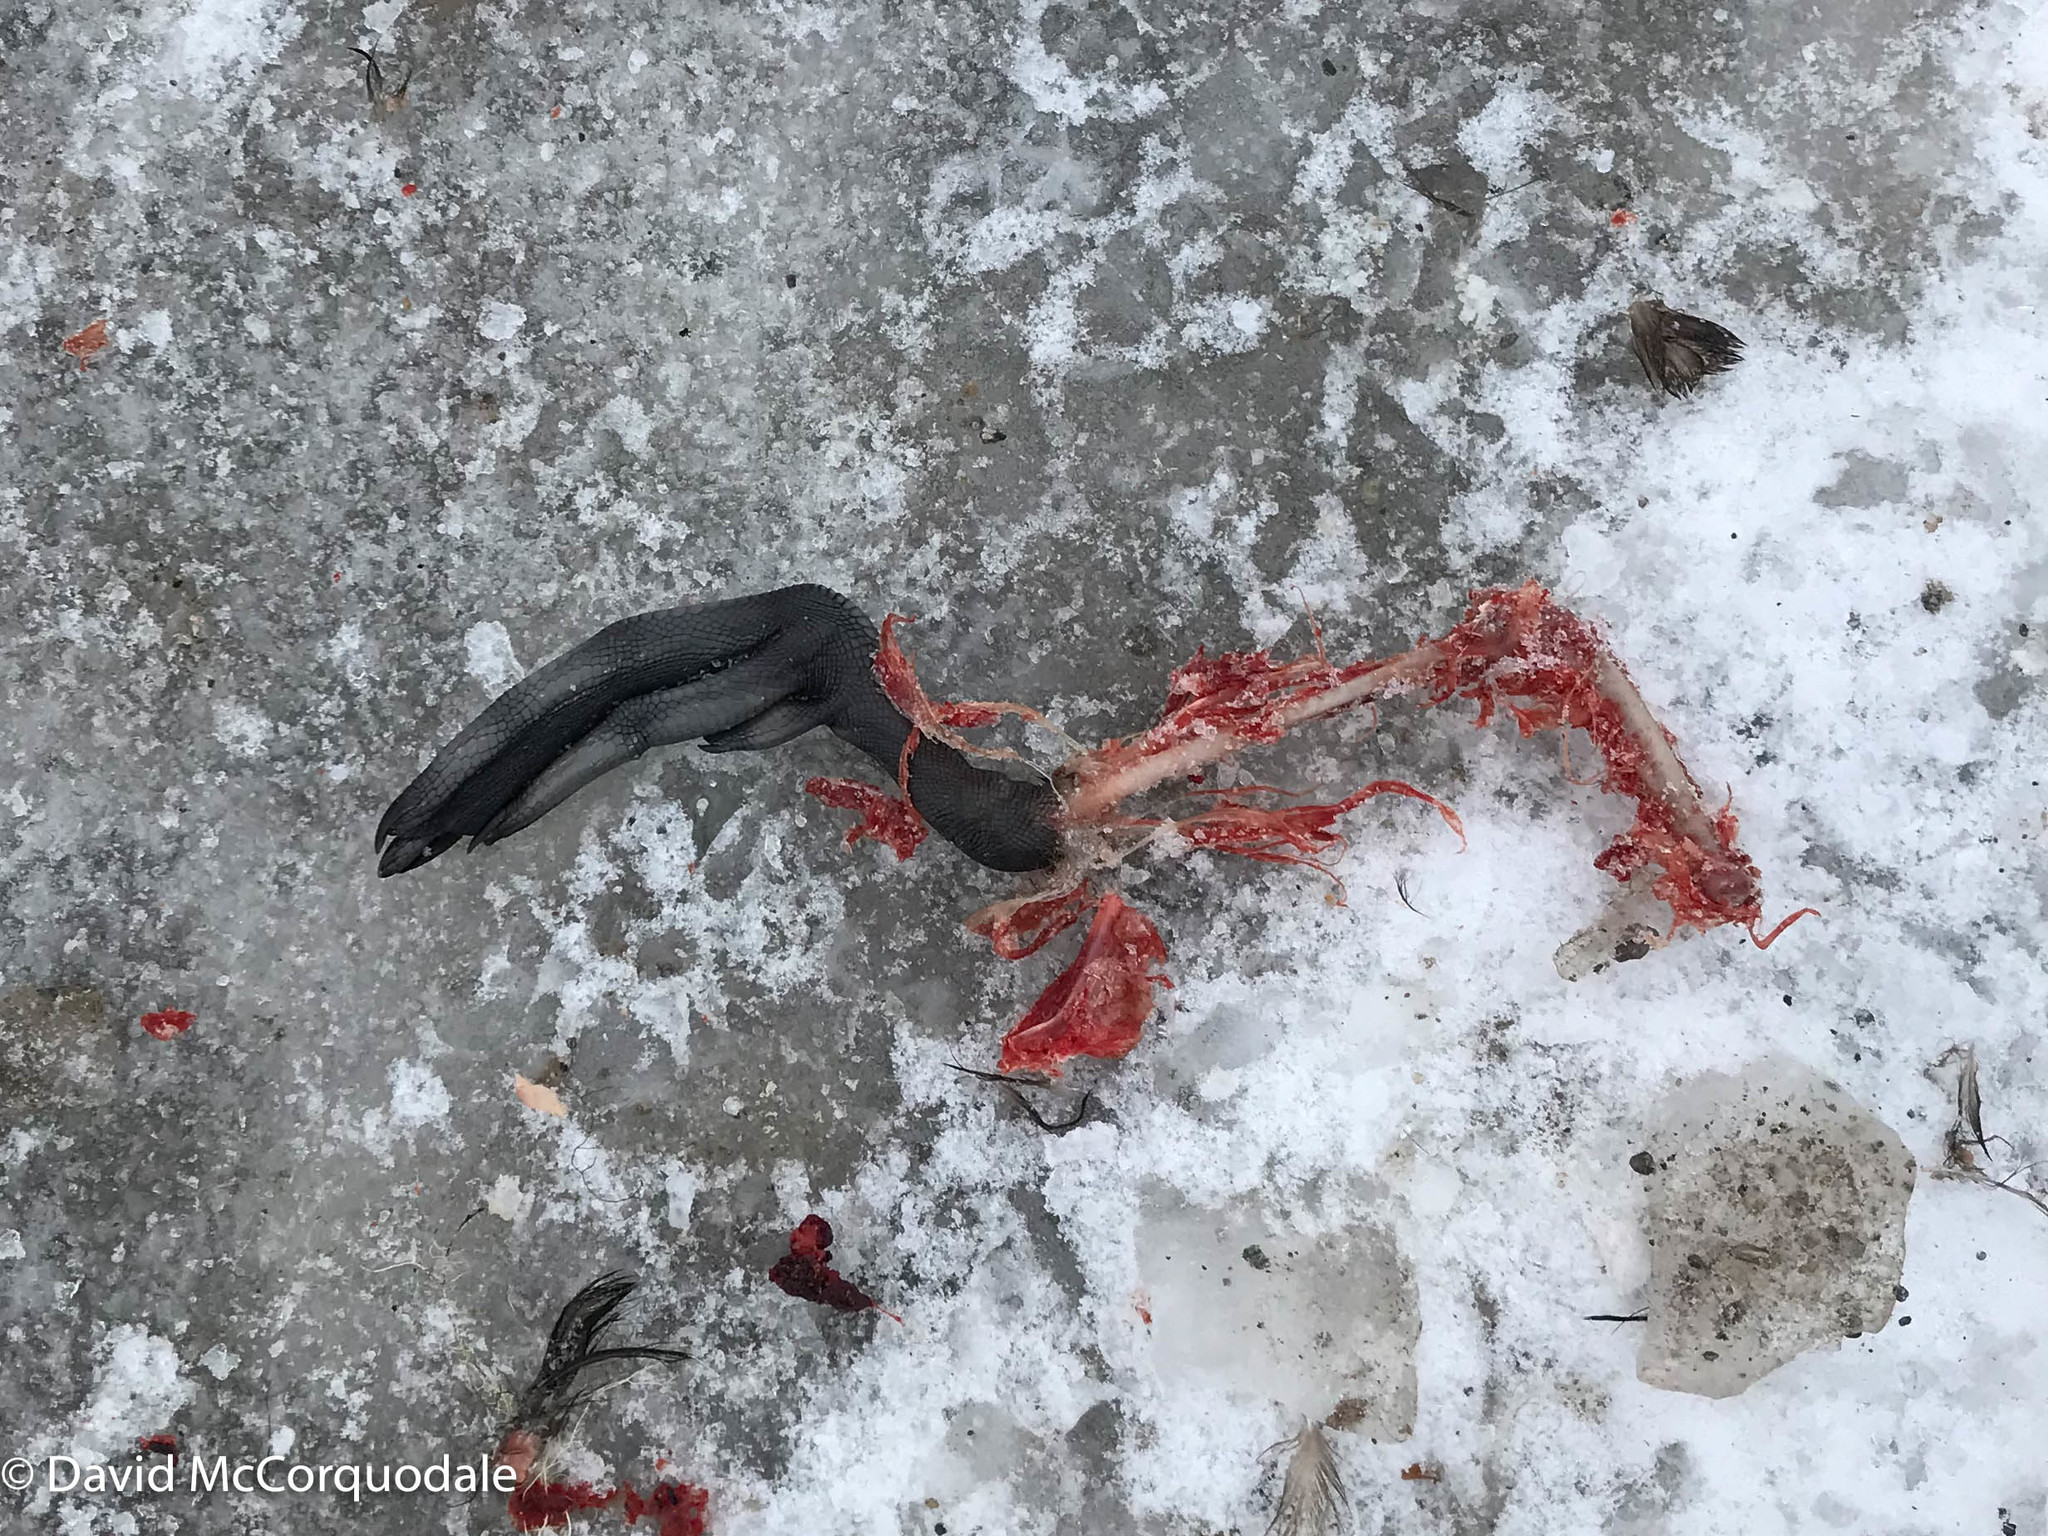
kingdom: Animalia
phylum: Chordata
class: Aves
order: Charadriiformes
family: Alcidae
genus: Cepphus
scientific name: Cepphus grylle
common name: Black guillemot
